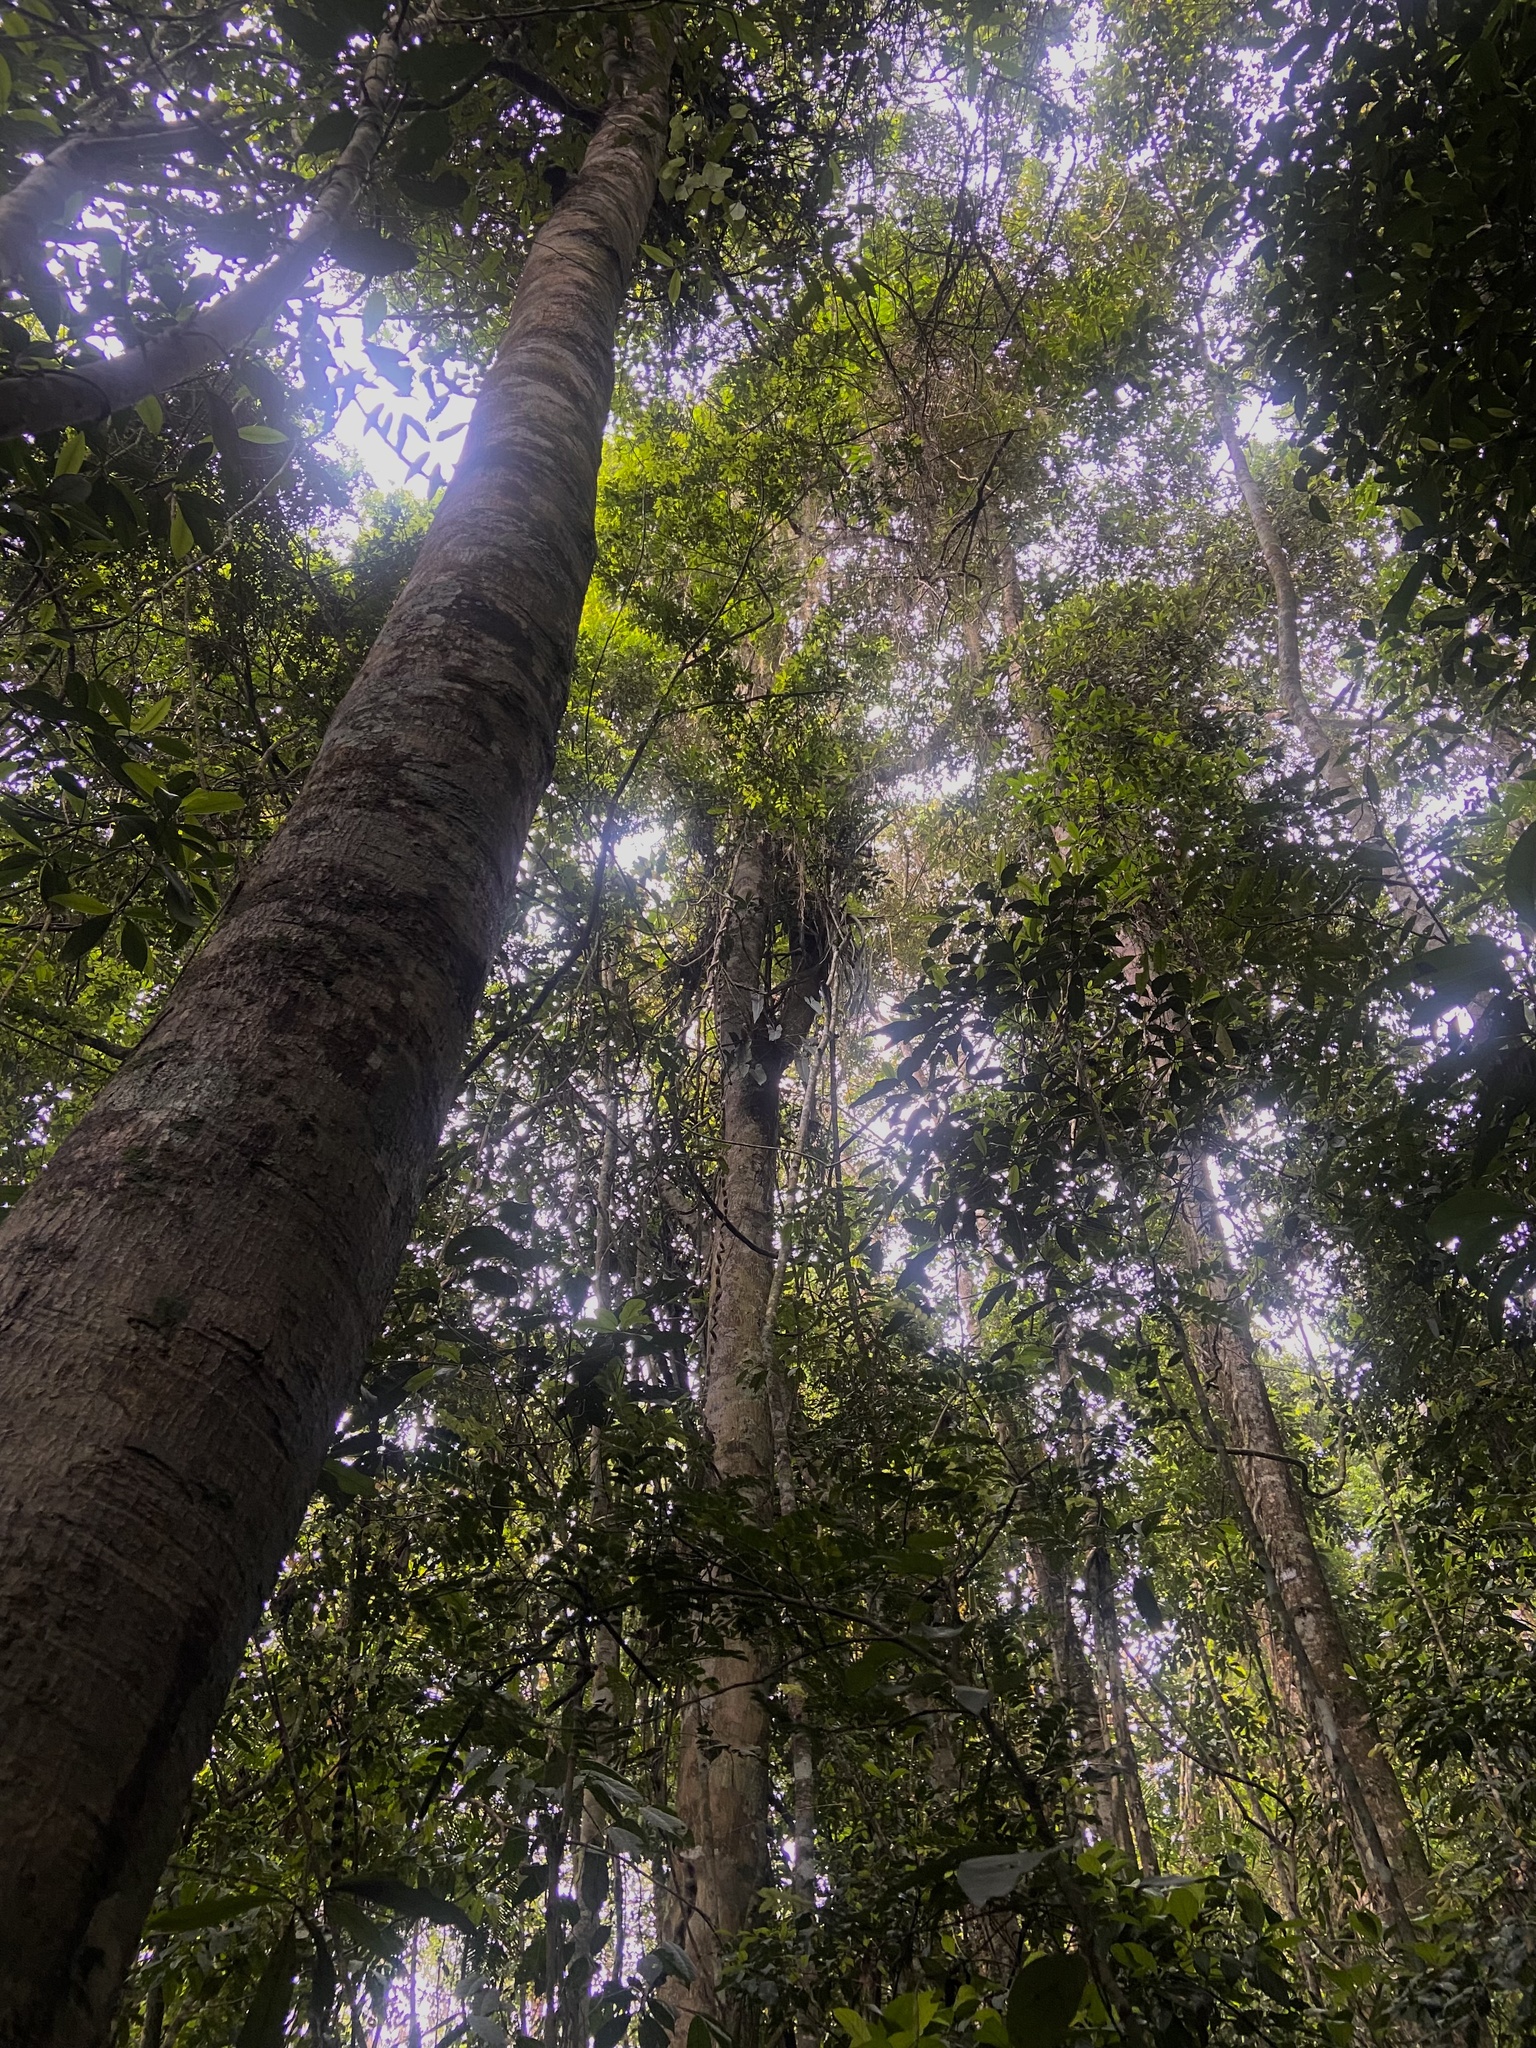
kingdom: Plantae
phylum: Tracheophyta
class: Liliopsida
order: Alismatales
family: Araceae
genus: Philodendron
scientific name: Philodendron spiritus-sancti
